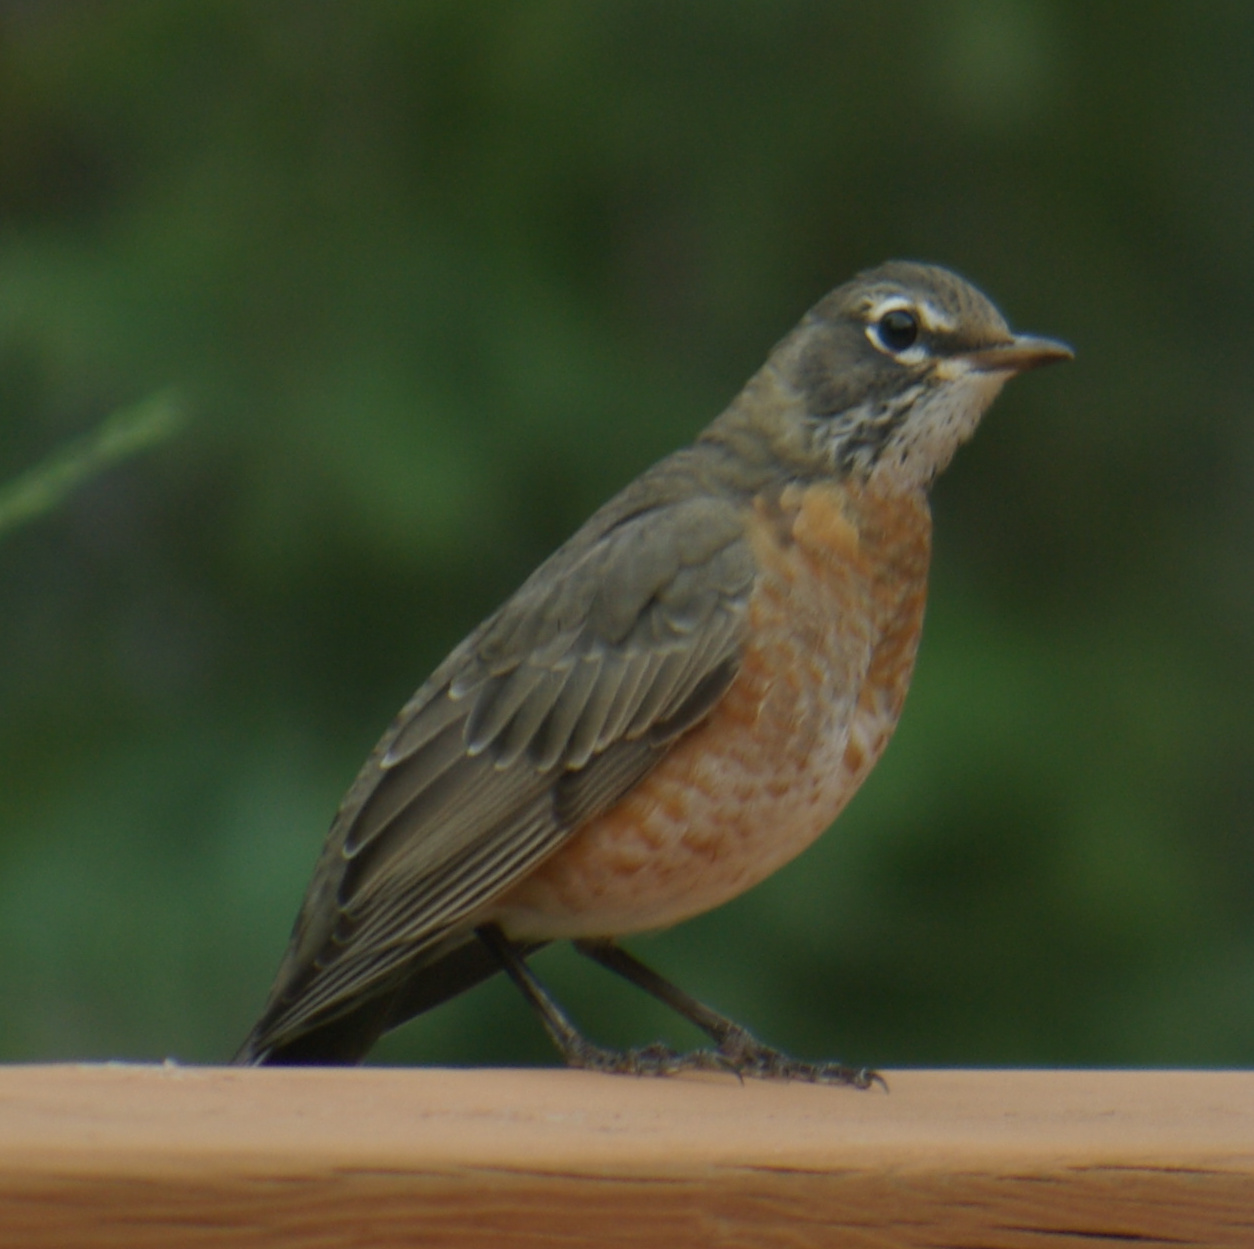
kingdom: Animalia
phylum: Chordata
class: Aves
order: Passeriformes
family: Turdidae
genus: Turdus
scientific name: Turdus migratorius
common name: American robin
